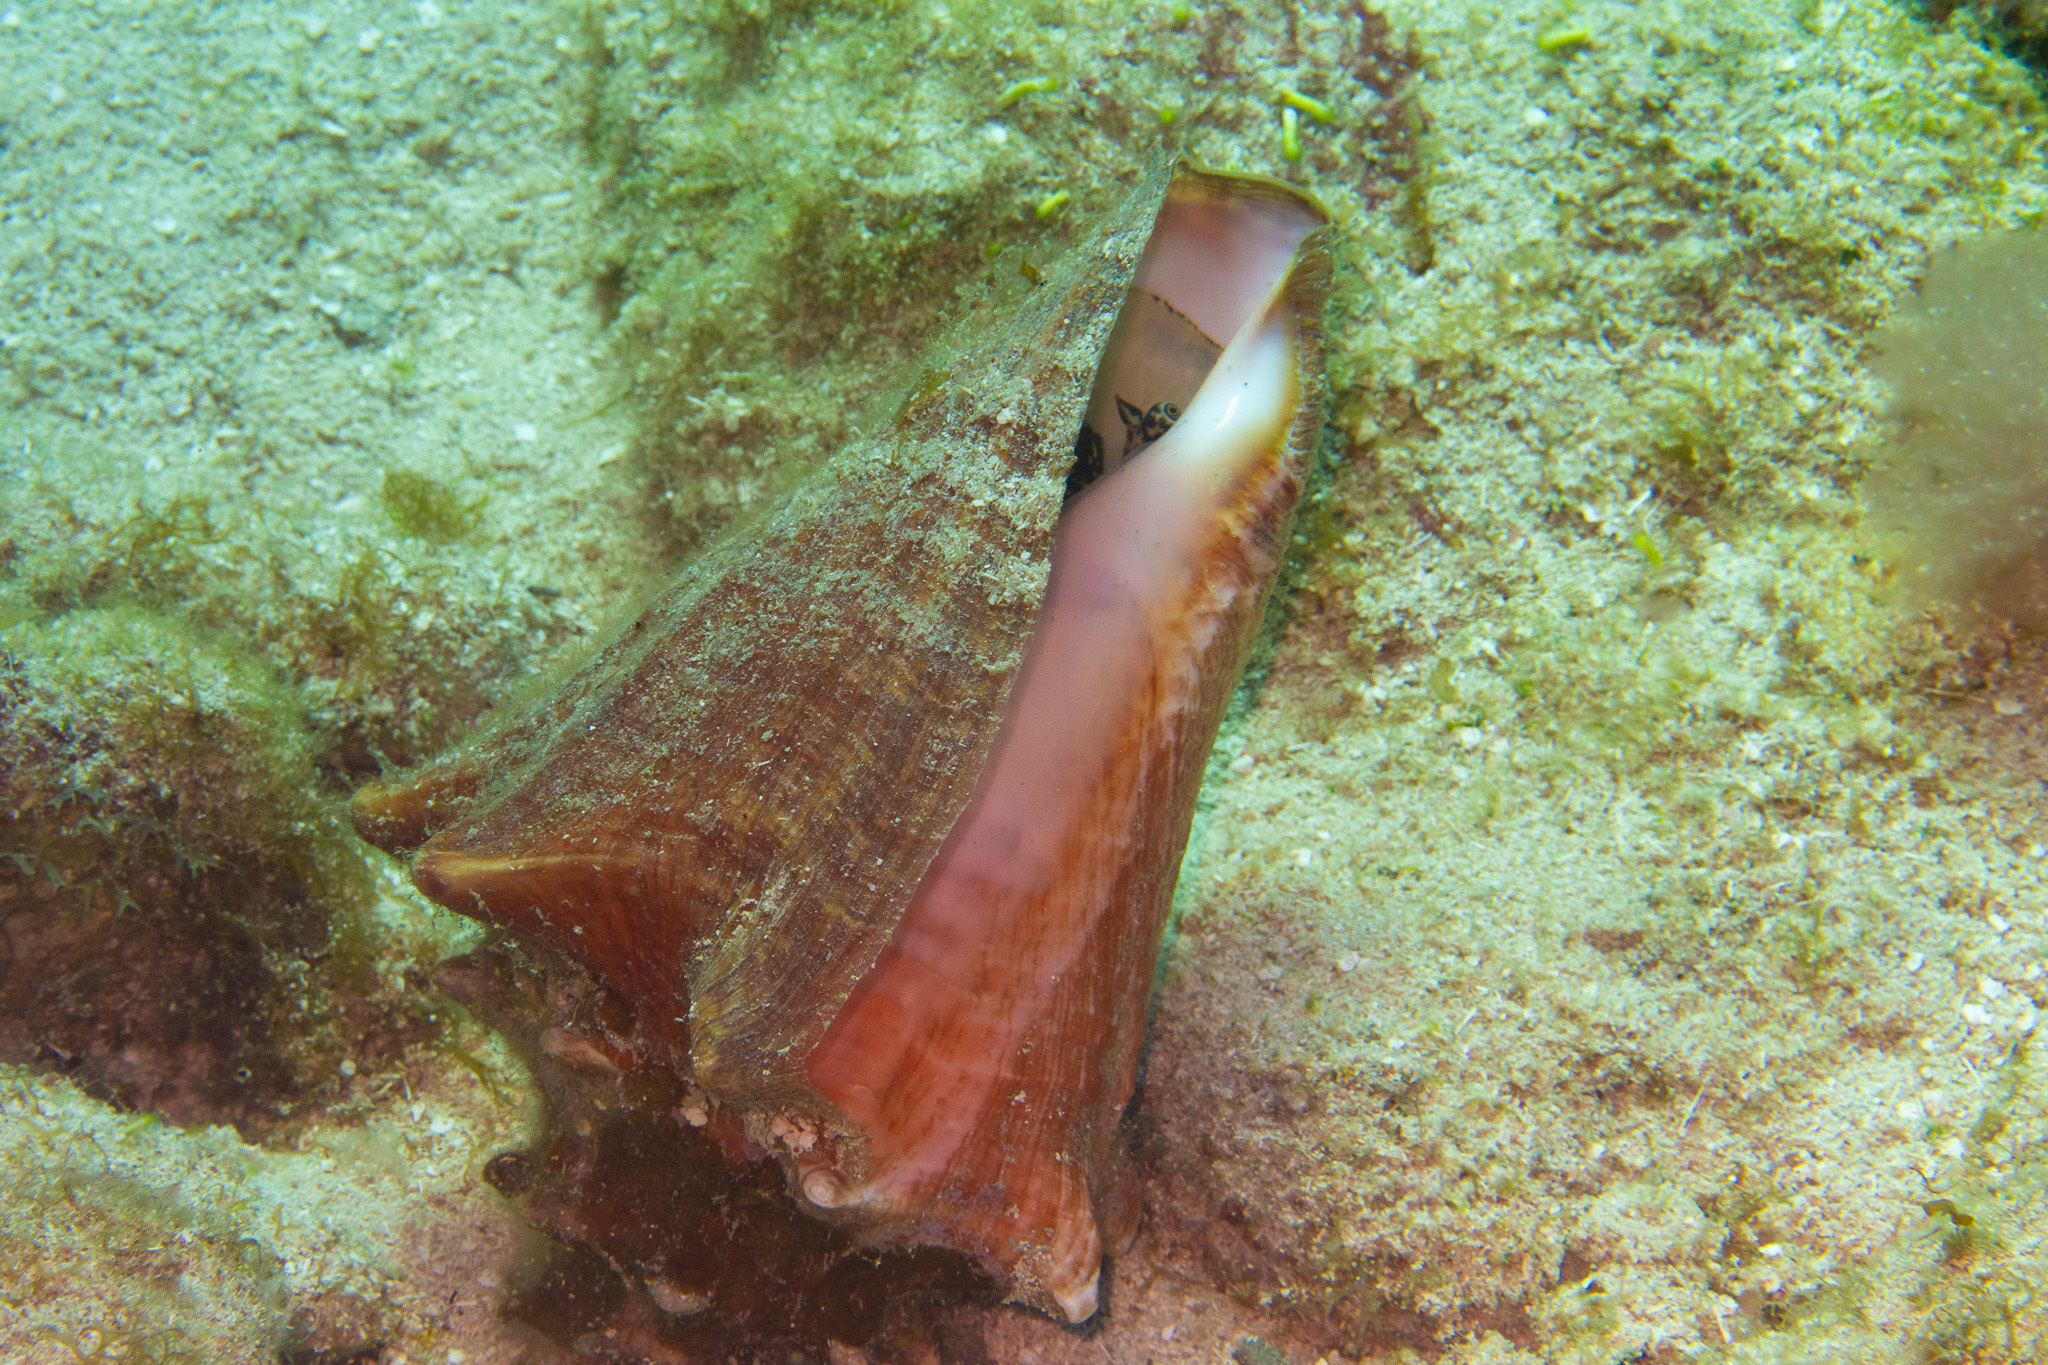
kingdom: Animalia
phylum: Mollusca
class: Gastropoda
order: Littorinimorpha
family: Strombidae
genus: Aliger
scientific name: Aliger gigas
